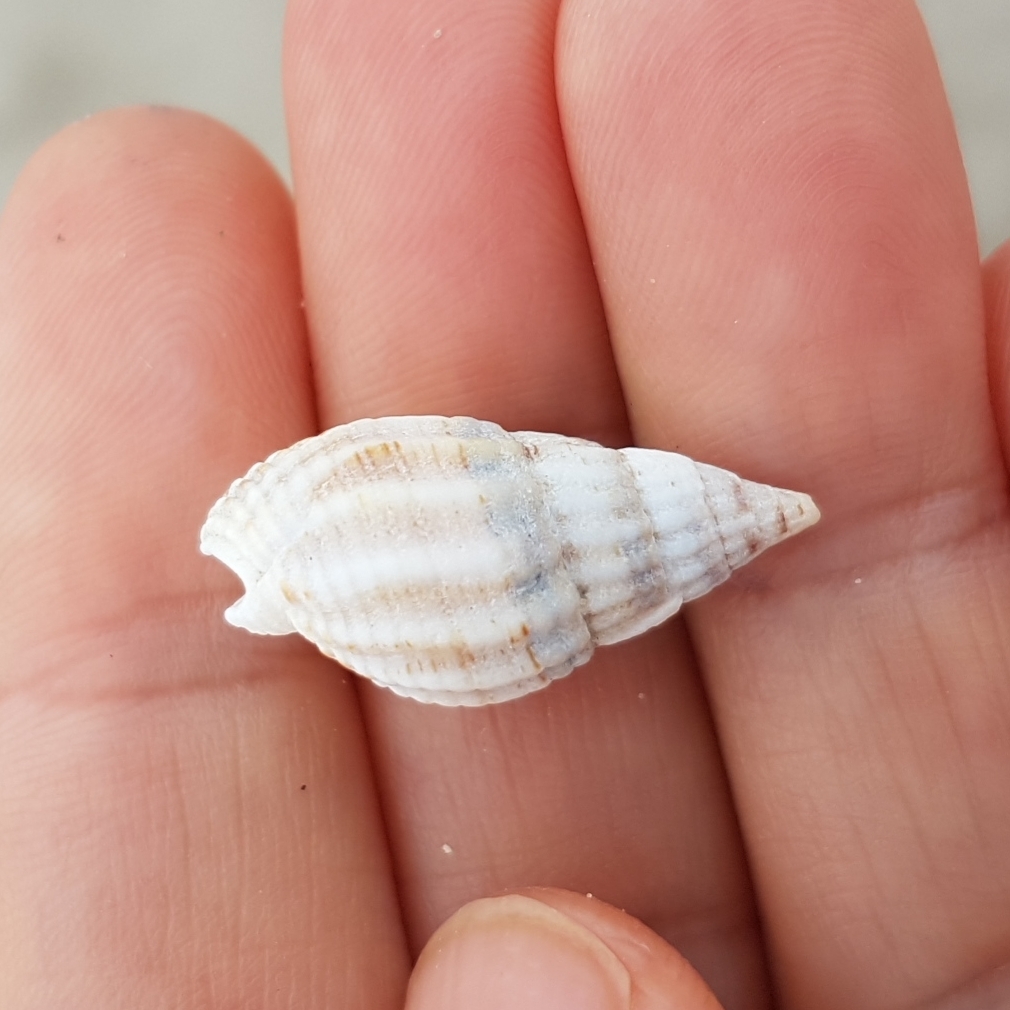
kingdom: Animalia
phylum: Mollusca
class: Gastropoda
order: Neogastropoda
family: Nassariidae
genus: Tritia
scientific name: Tritia reticulata
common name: Netted dog whelk
